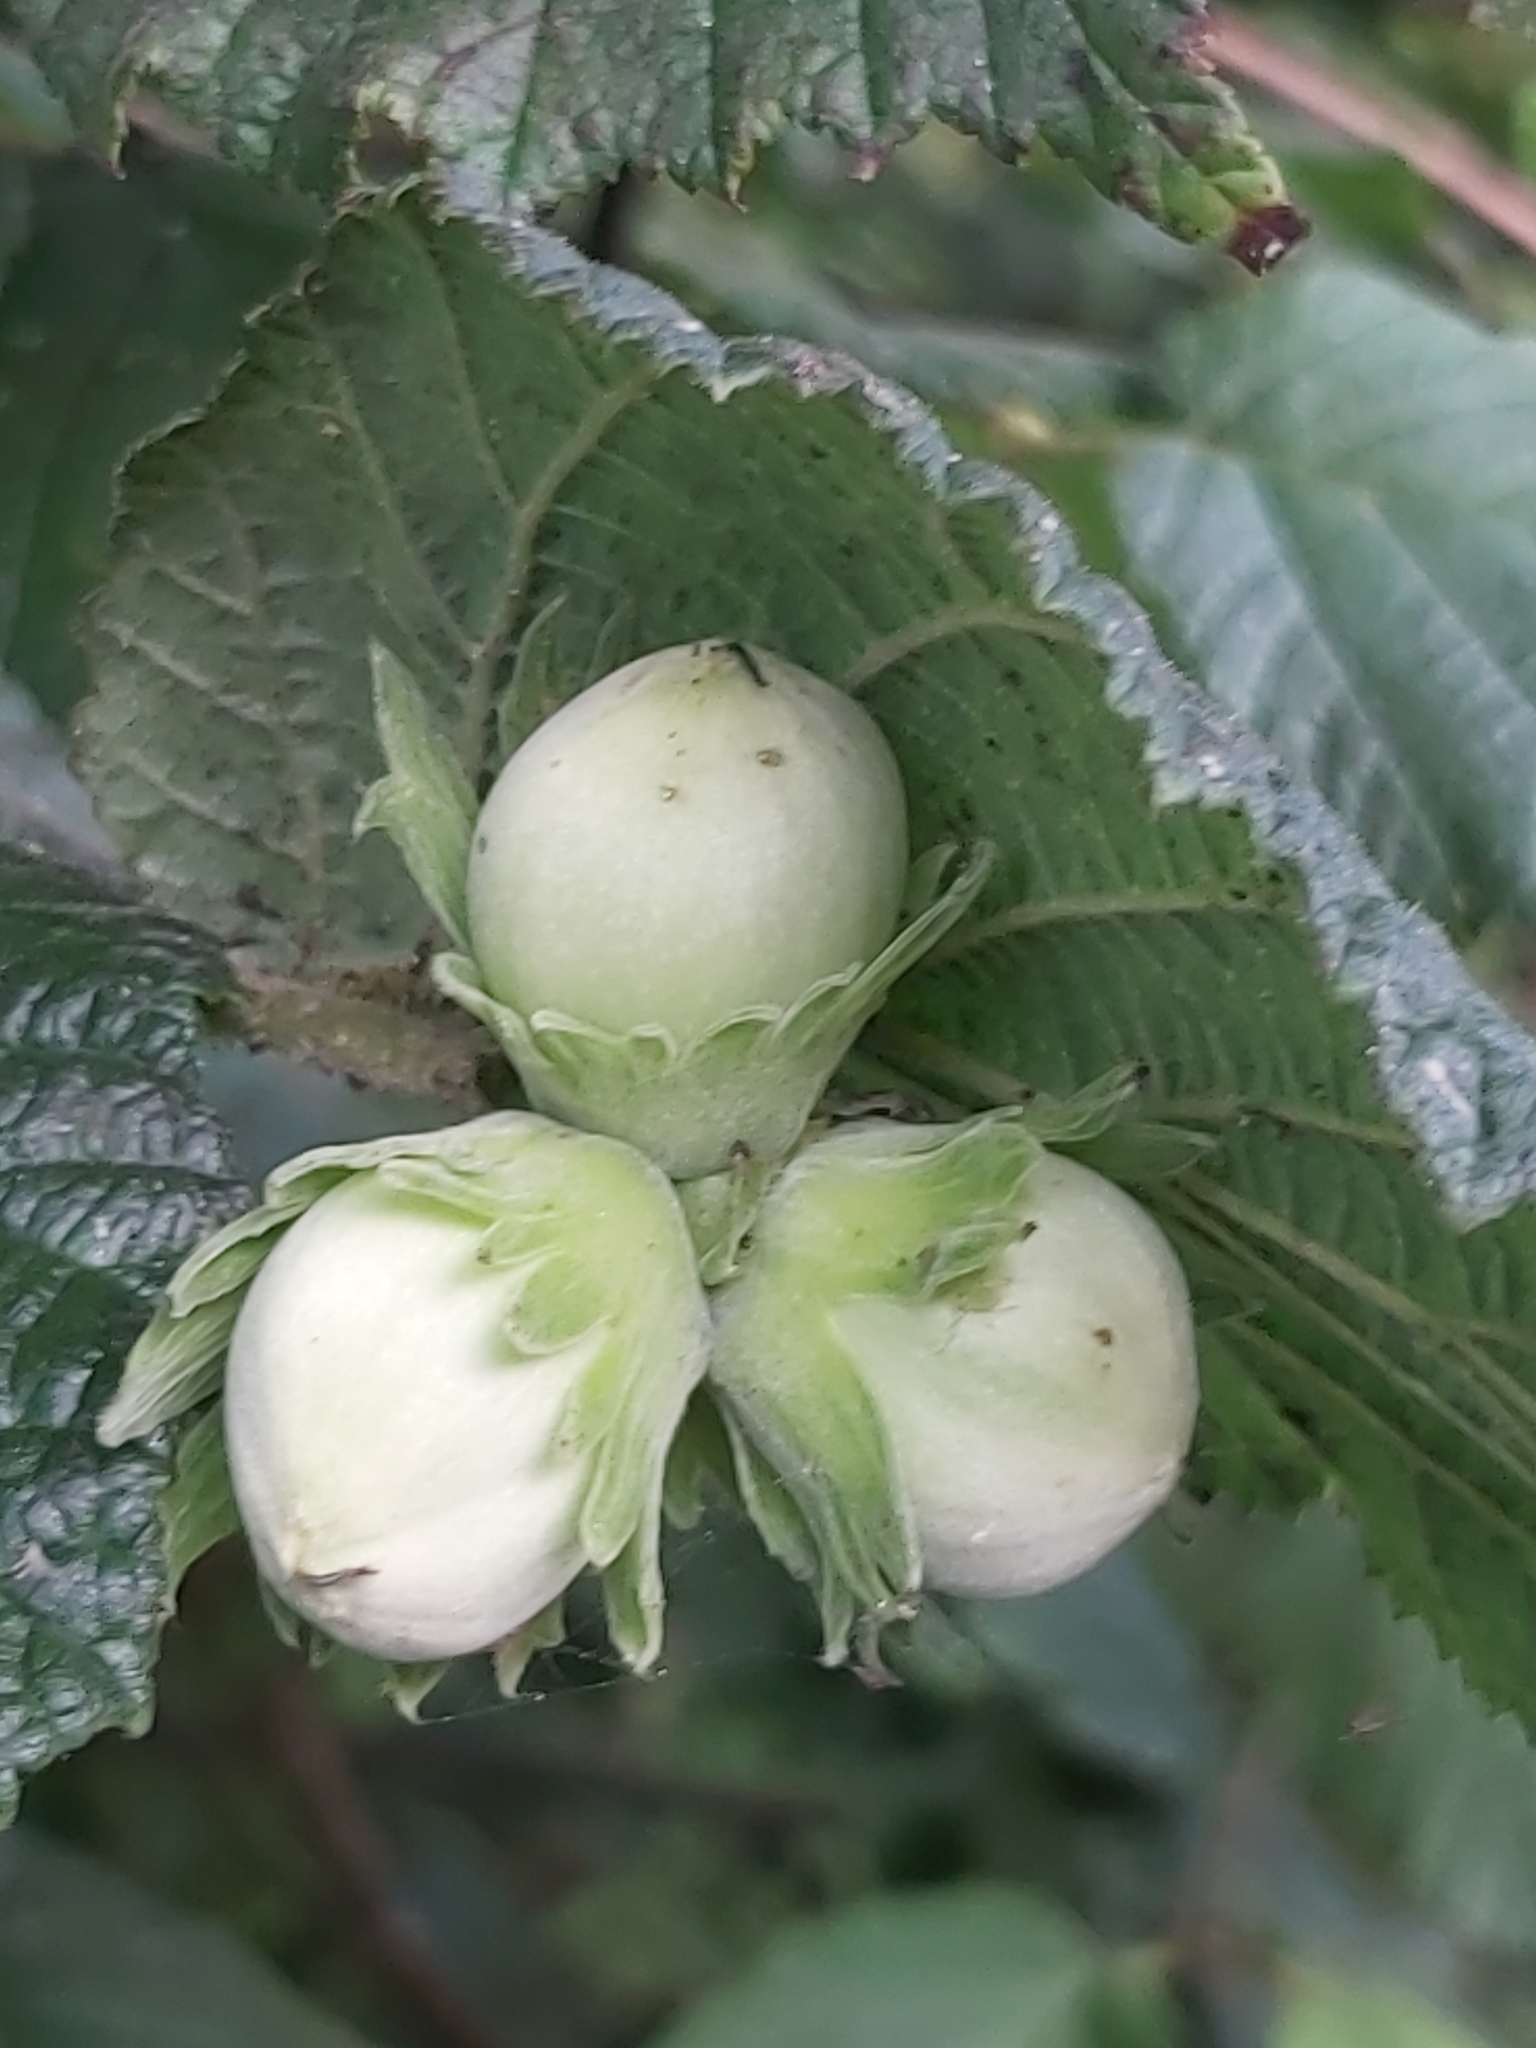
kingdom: Plantae
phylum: Tracheophyta
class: Magnoliopsida
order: Fagales
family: Betulaceae
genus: Corylus
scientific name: Corylus avellana
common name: European hazel
